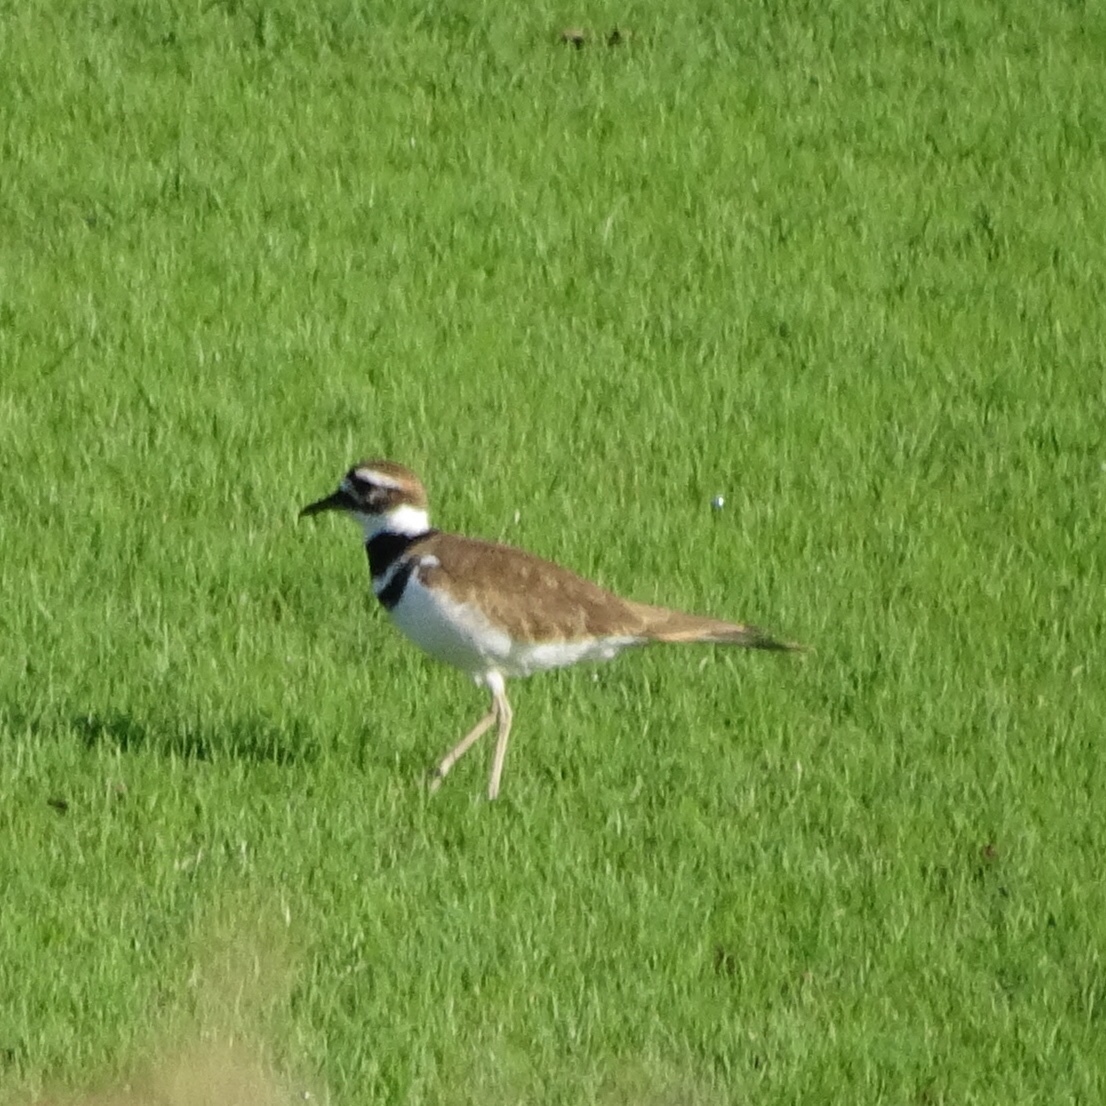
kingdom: Animalia
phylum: Chordata
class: Aves
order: Charadriiformes
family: Charadriidae
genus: Charadrius
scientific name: Charadrius vociferus
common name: Killdeer
